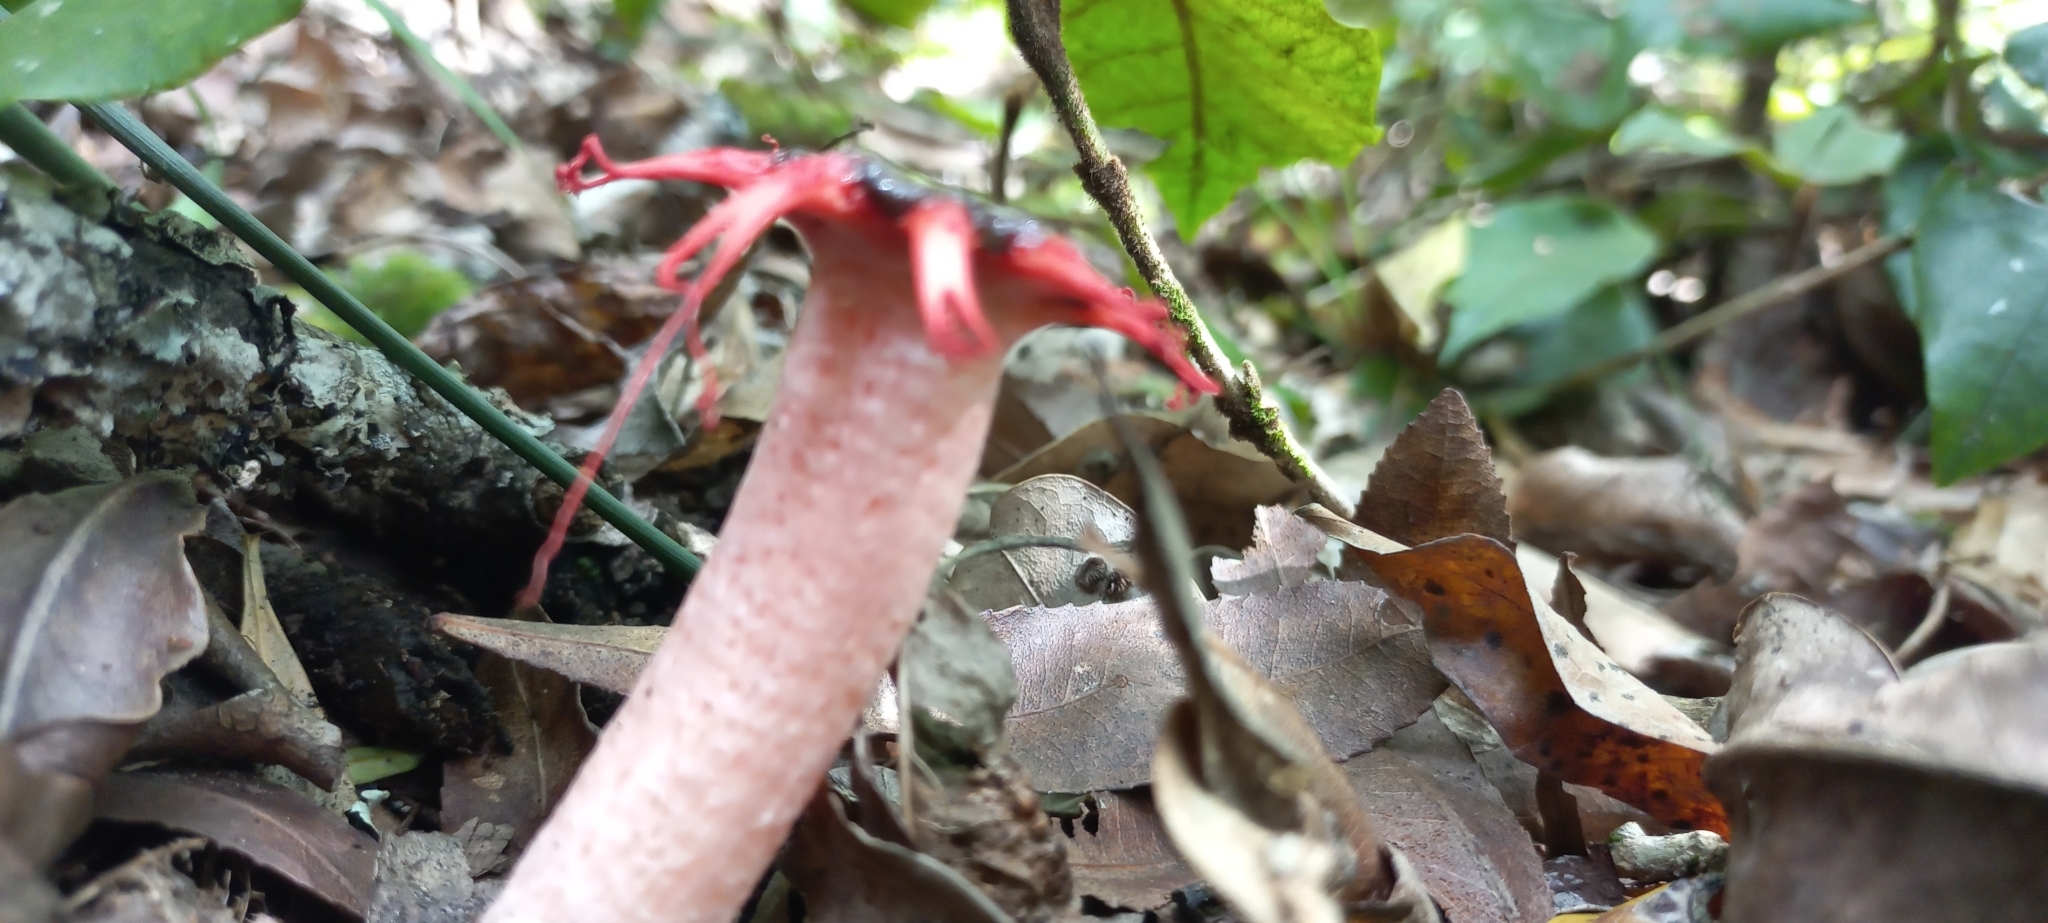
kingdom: Fungi
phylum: Basidiomycota
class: Agaricomycetes
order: Phallales
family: Phallaceae
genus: Aseroe
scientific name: Aseroe rubra
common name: Starfish fungus
